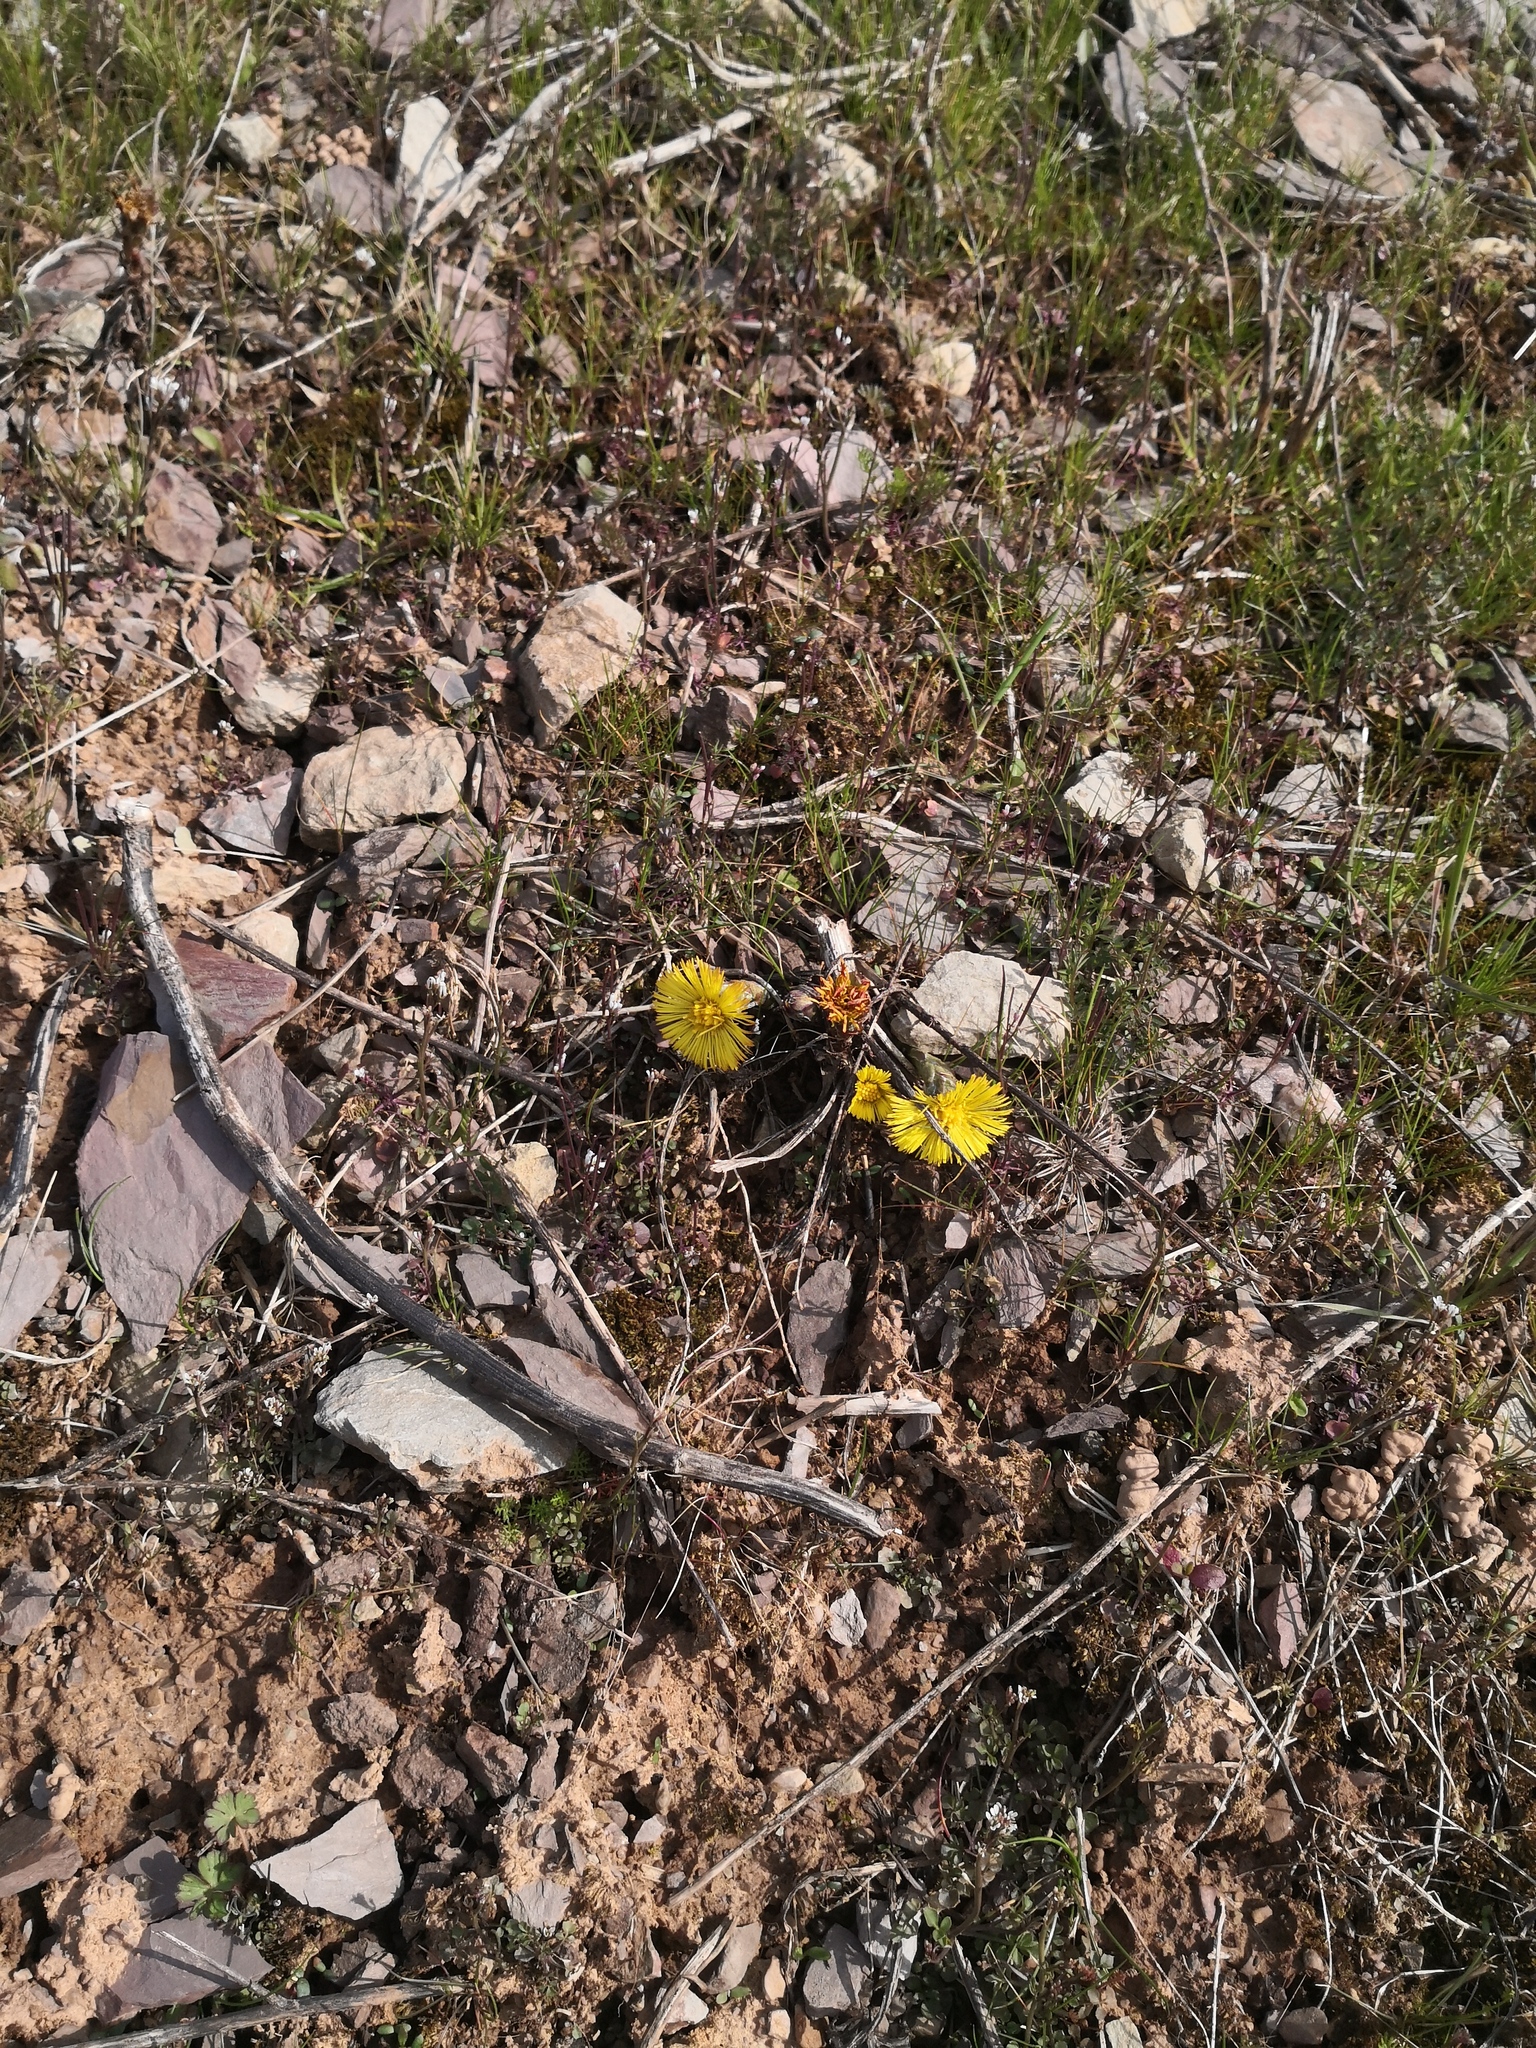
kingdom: Plantae
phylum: Tracheophyta
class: Magnoliopsida
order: Asterales
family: Asteraceae
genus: Tussilago
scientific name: Tussilago farfara
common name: Coltsfoot
